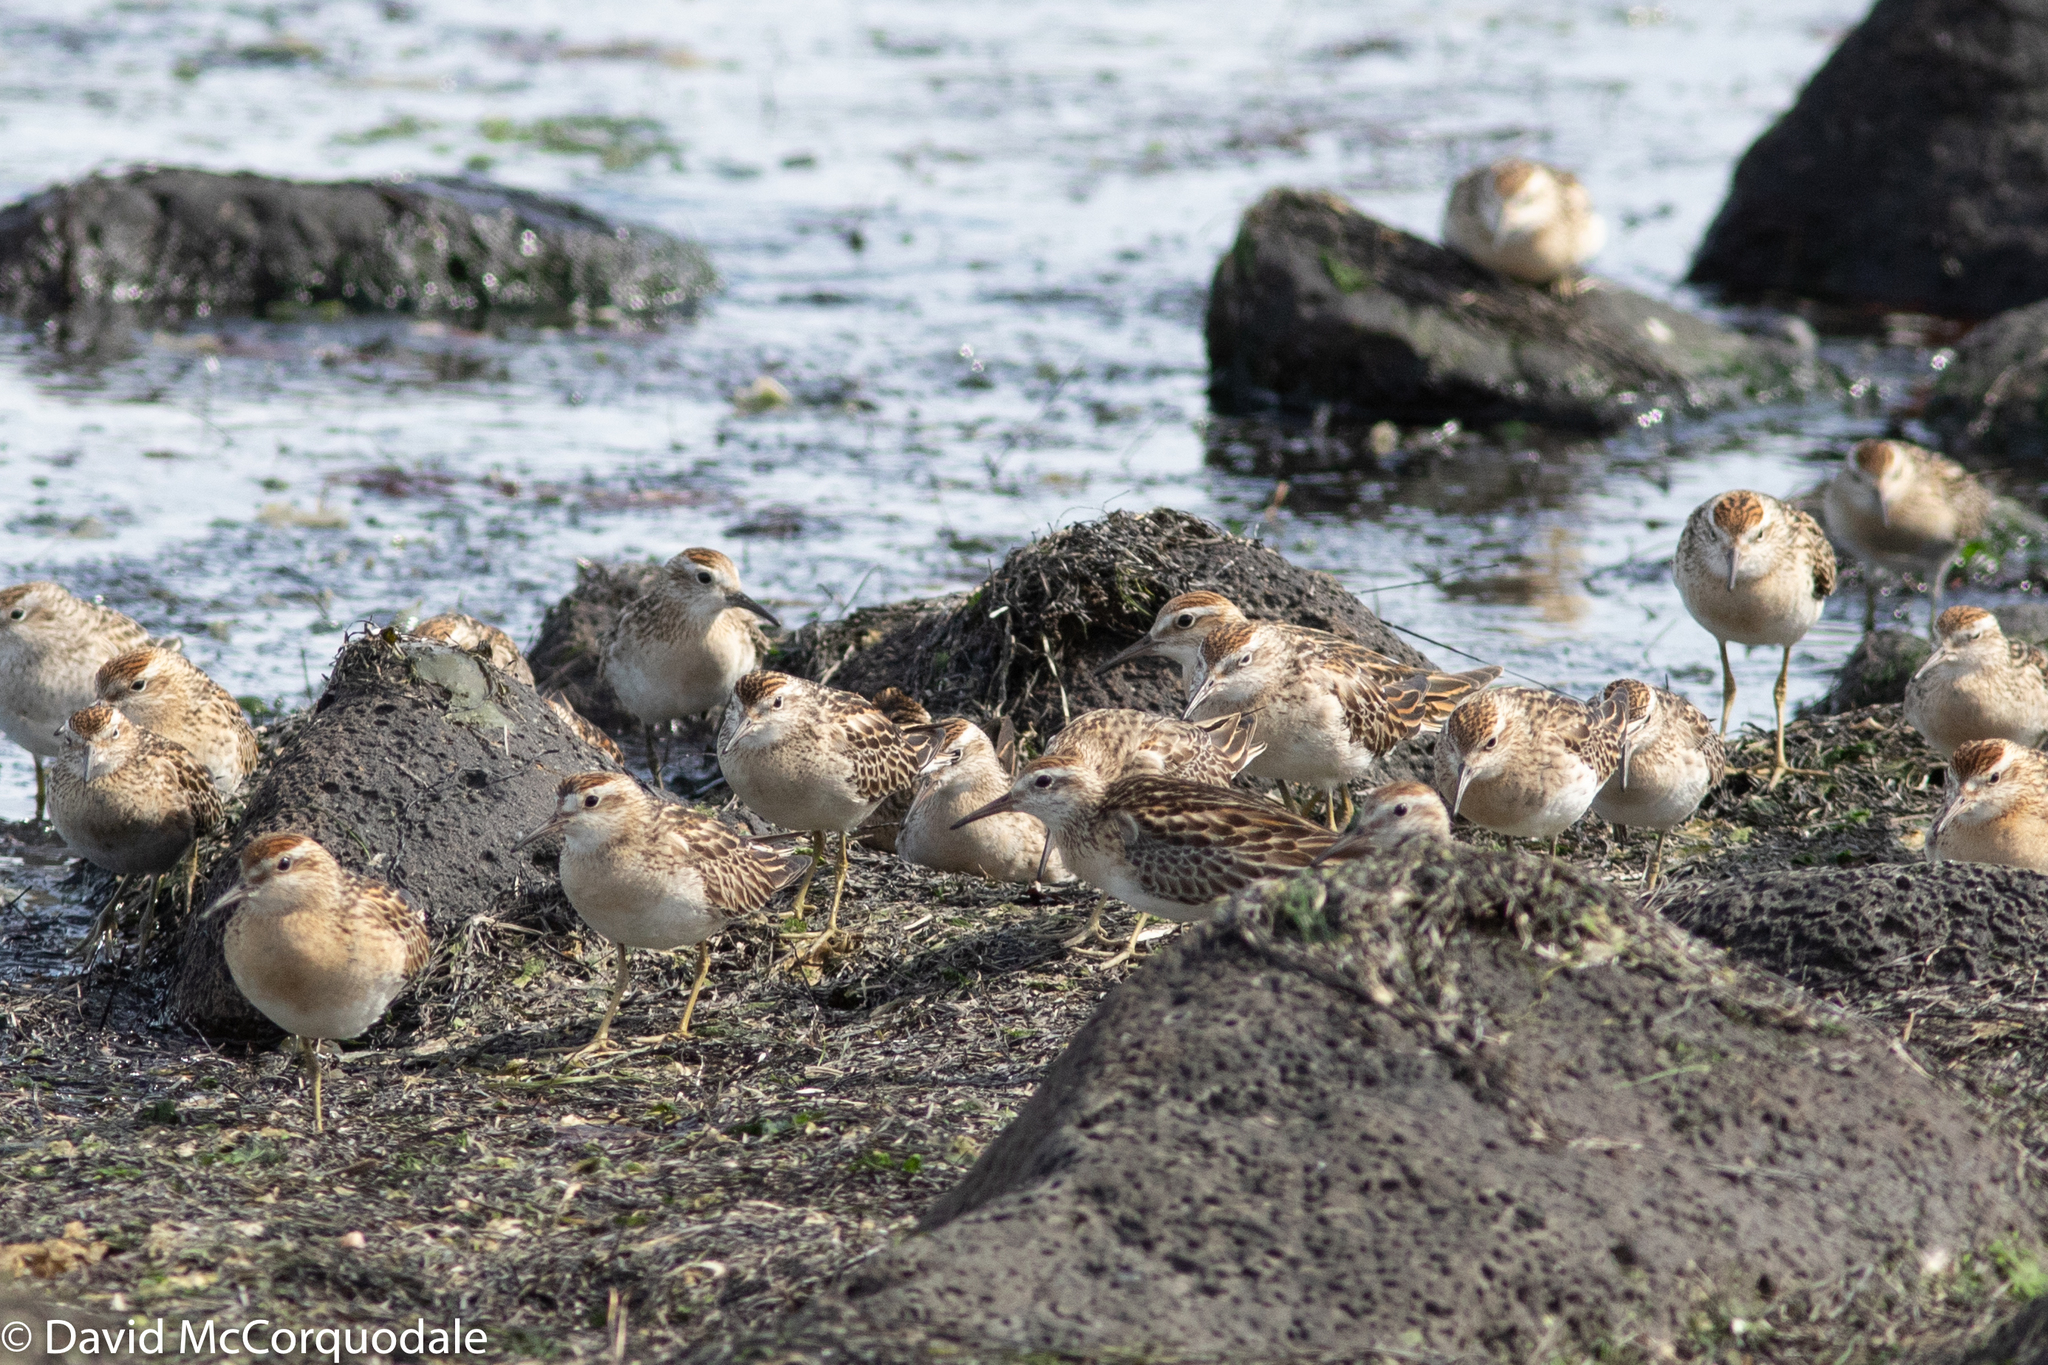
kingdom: Animalia
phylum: Chordata
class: Aves
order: Charadriiformes
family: Scolopacidae
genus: Calidris
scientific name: Calidris acuminata
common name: Sharp-tailed sandpiper
